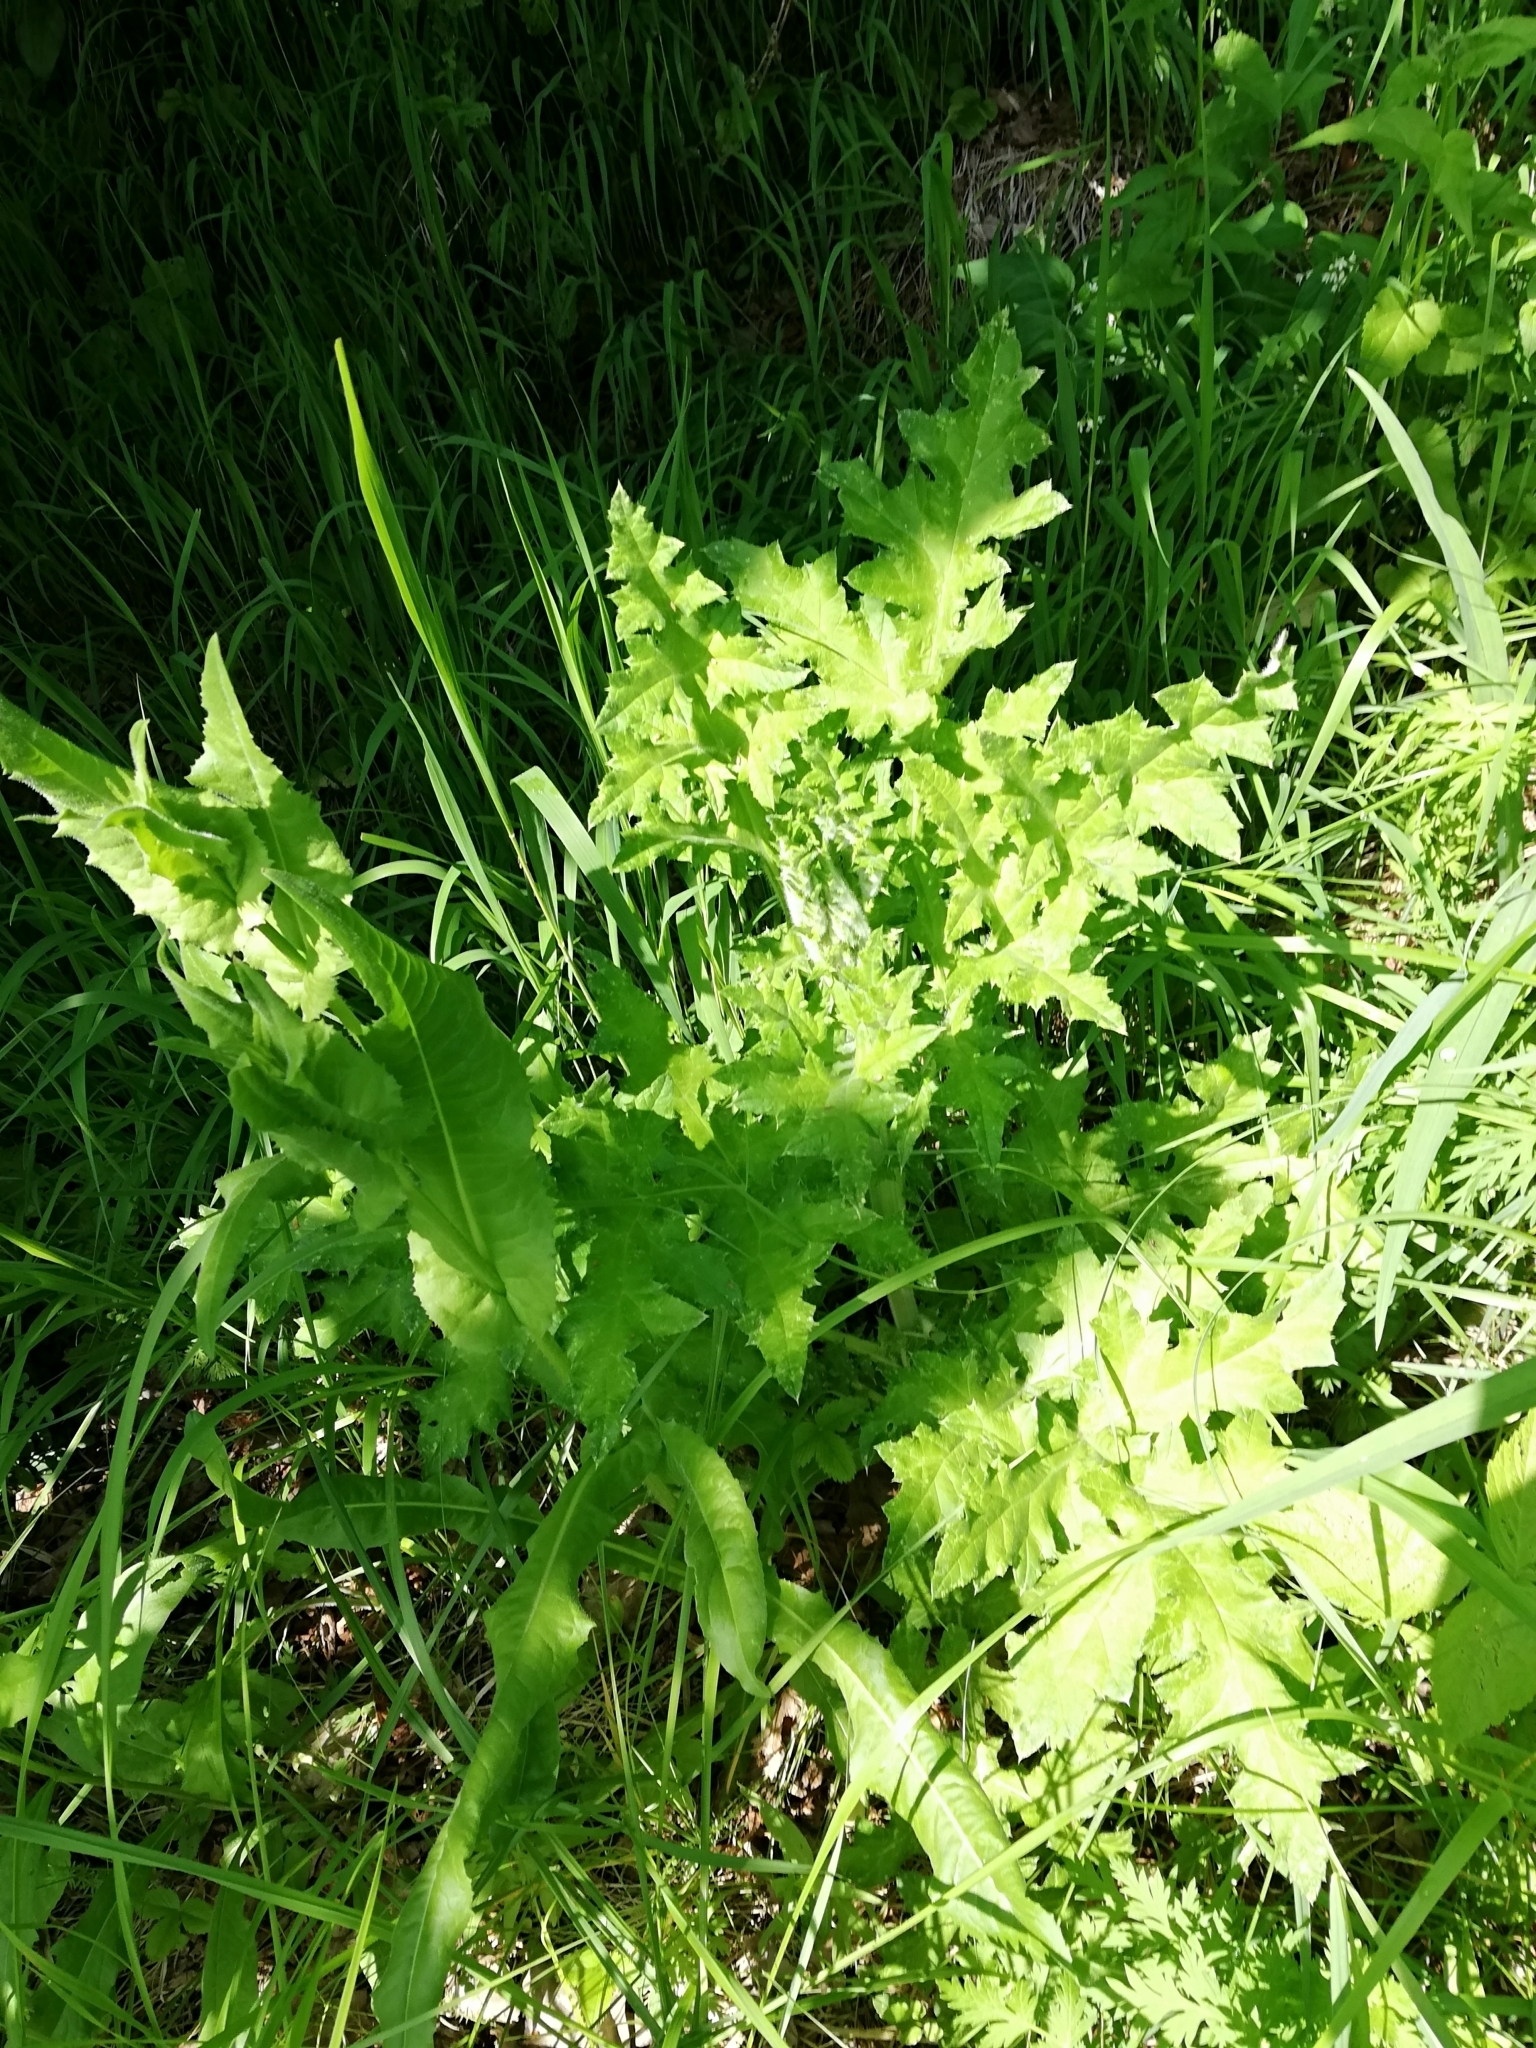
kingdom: Plantae
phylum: Tracheophyta
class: Magnoliopsida
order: Asterales
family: Asteraceae
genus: Echinops
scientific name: Echinops sphaerocephalus
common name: Glandular globe-thistle
